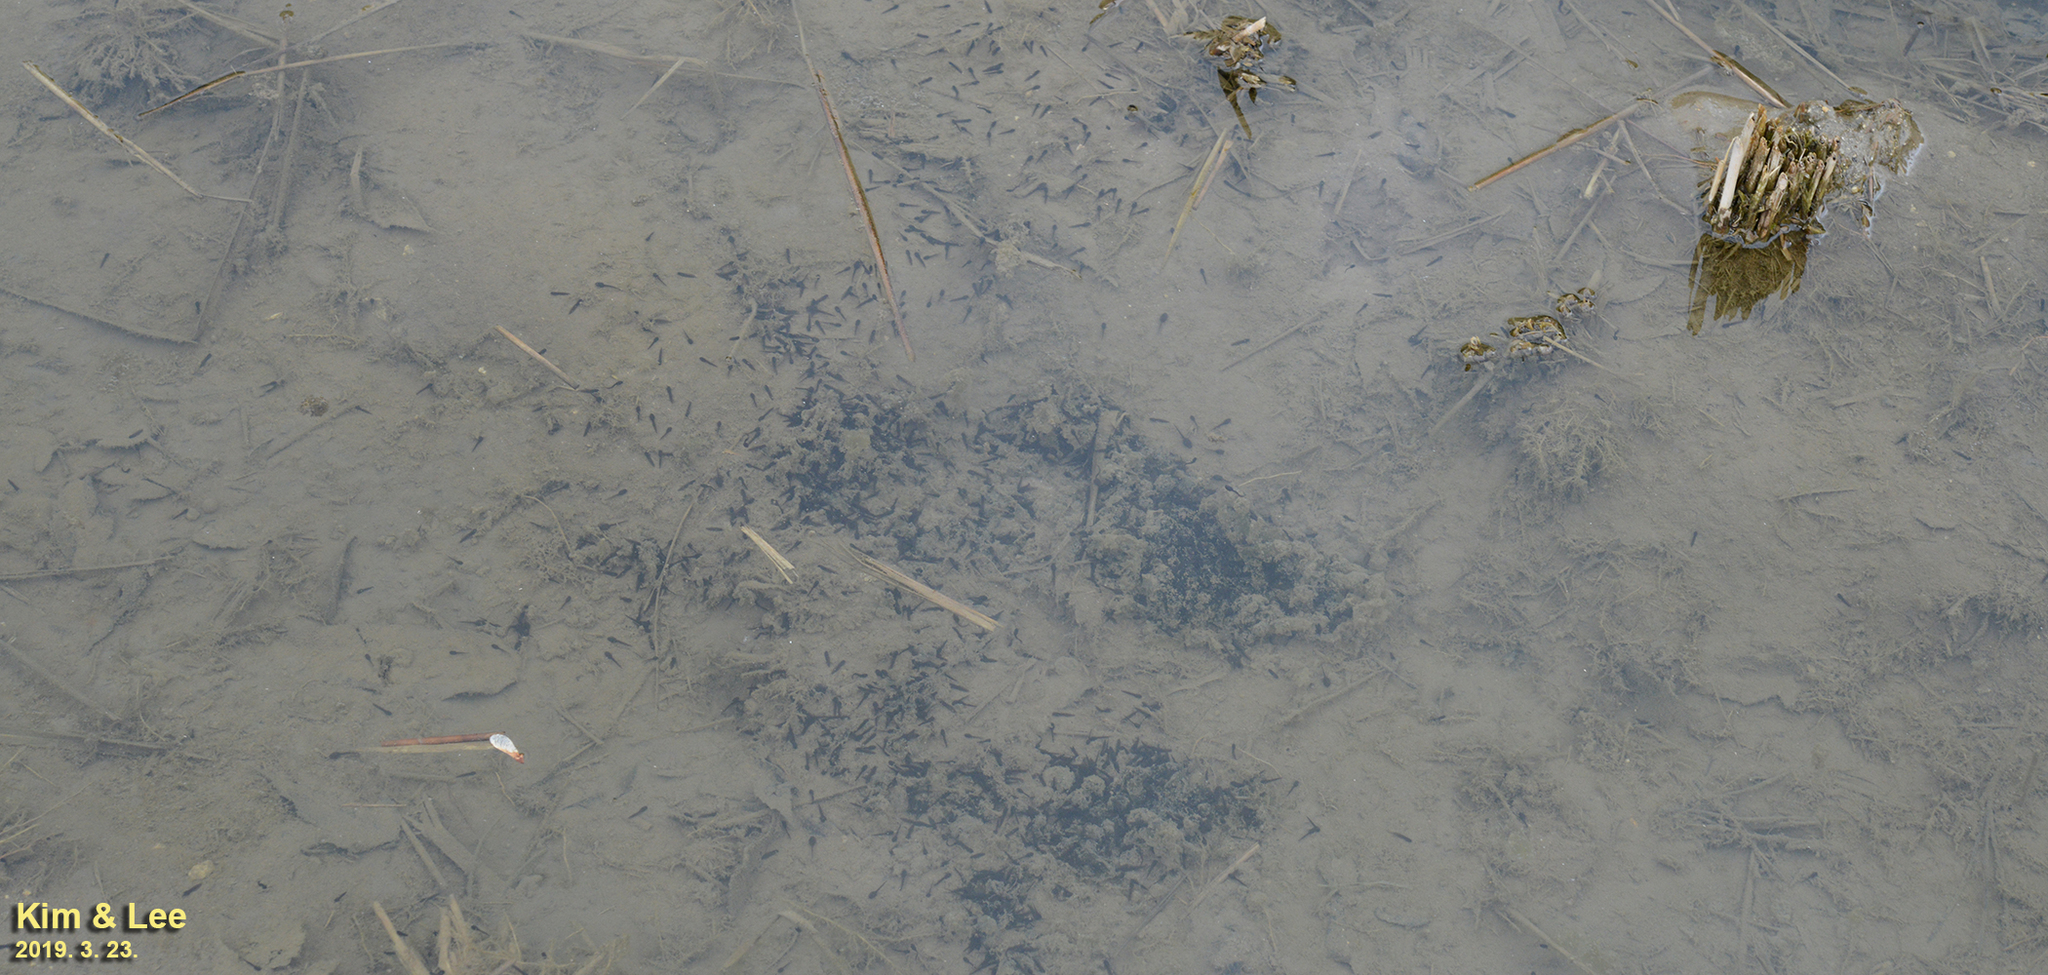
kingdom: Animalia
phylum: Chordata
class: Amphibia
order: Anura
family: Ranidae
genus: Rana
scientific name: Rana uenoi
